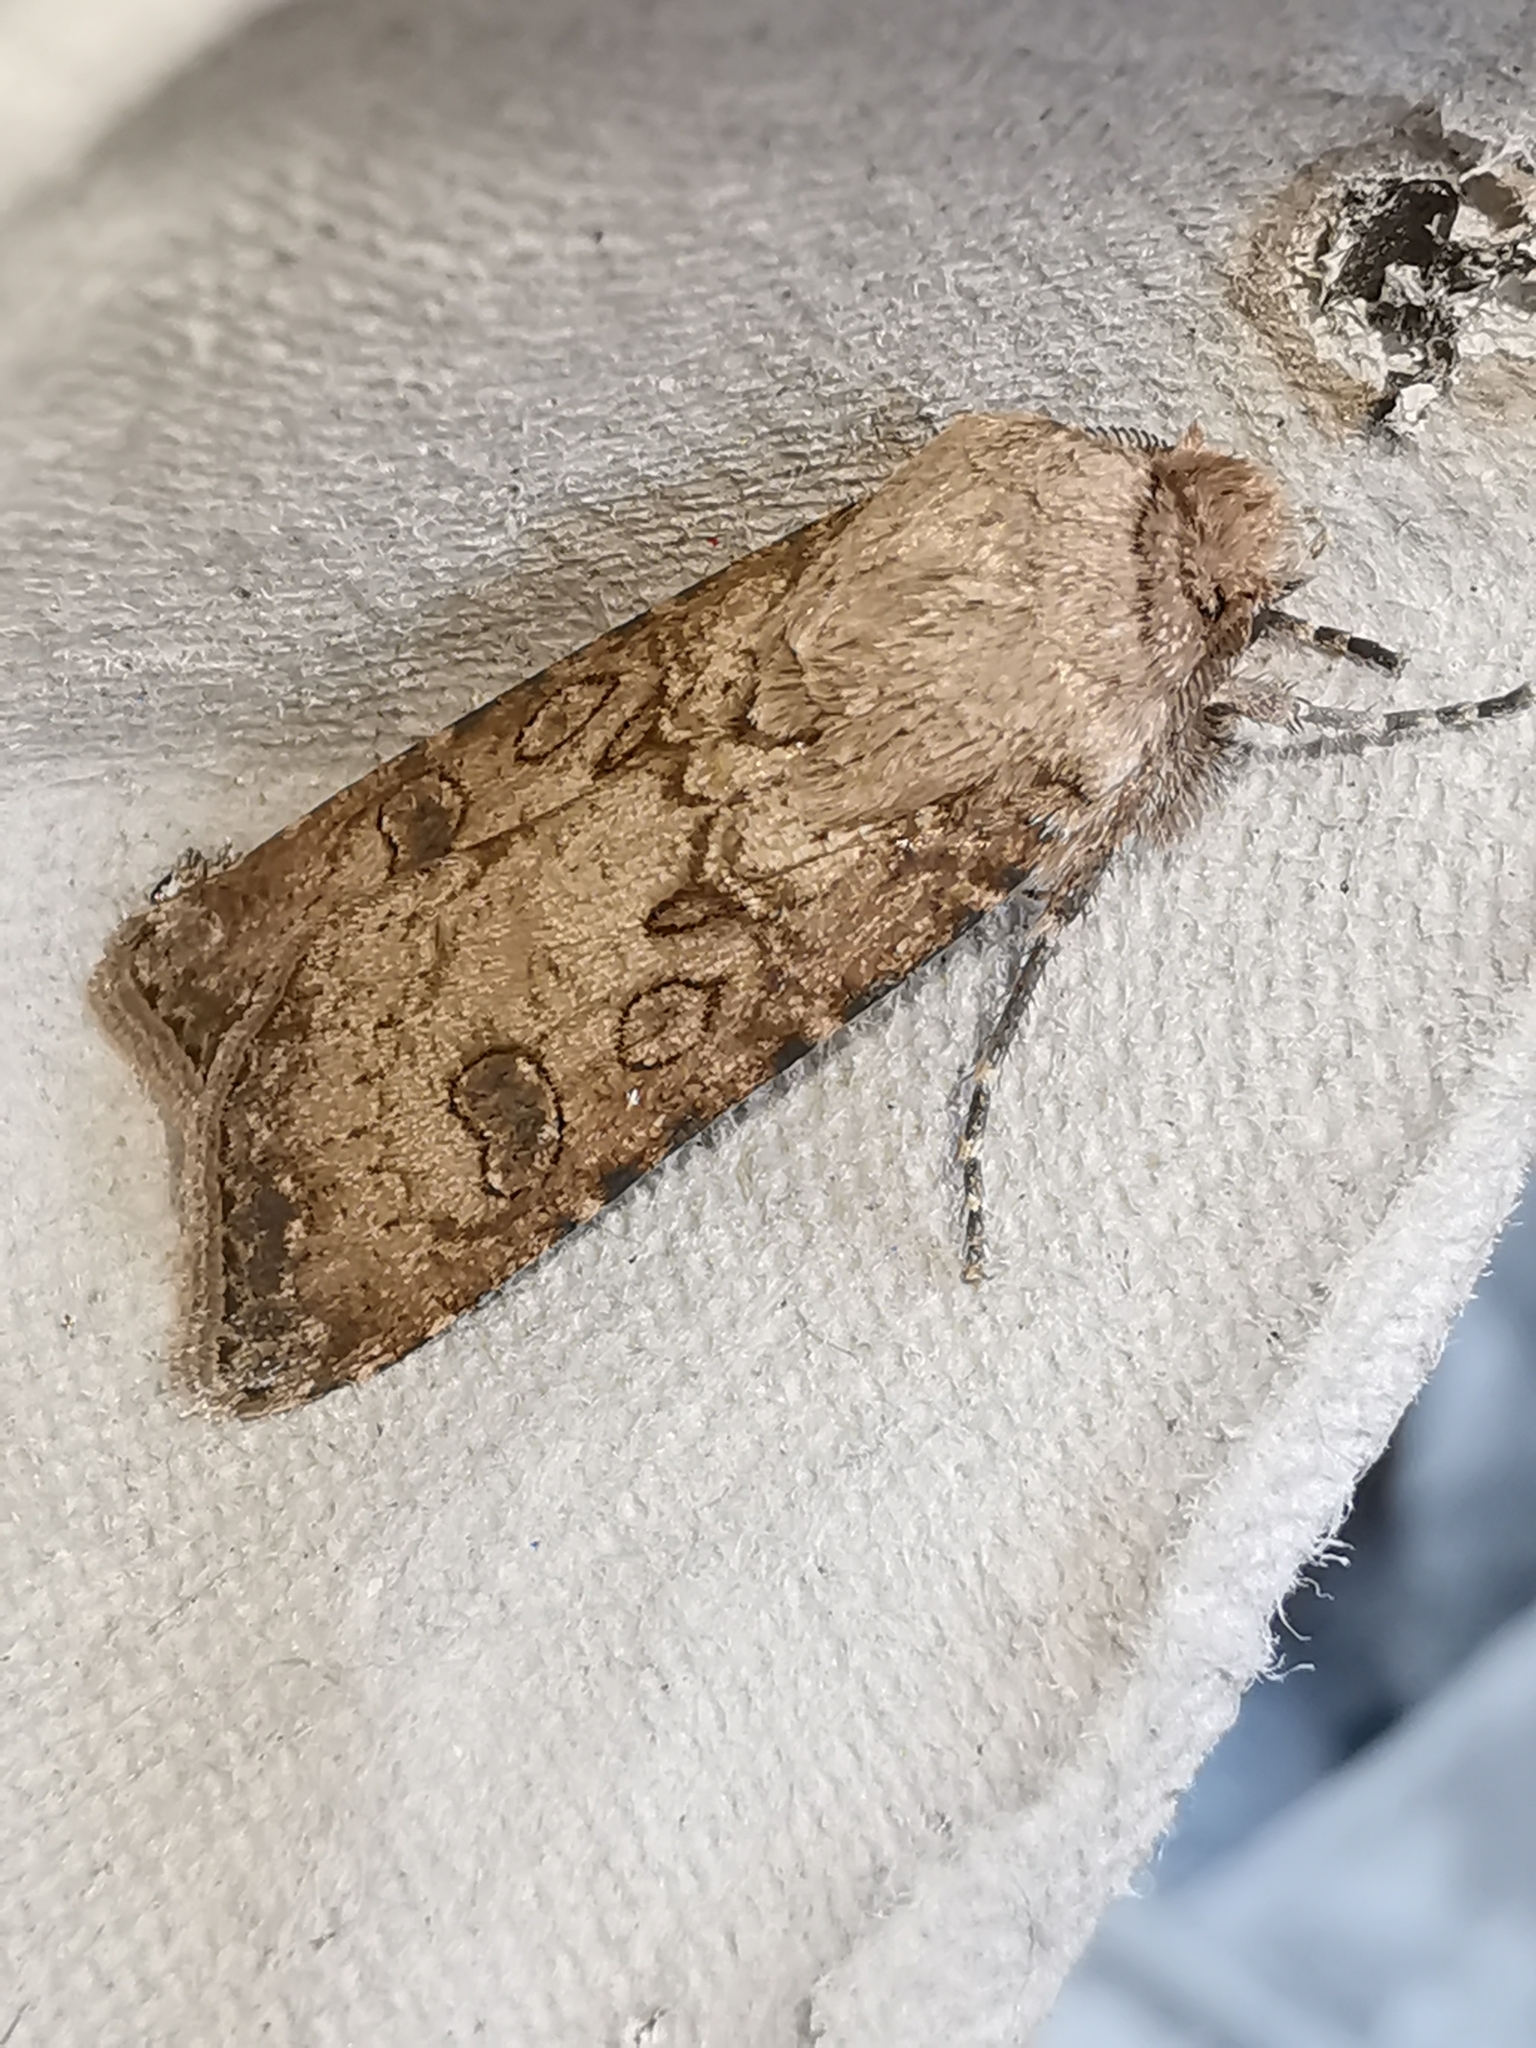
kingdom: Animalia
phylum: Arthropoda
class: Insecta
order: Lepidoptera
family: Noctuidae
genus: Agrotis
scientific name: Agrotis segetum
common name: Turnip moth
